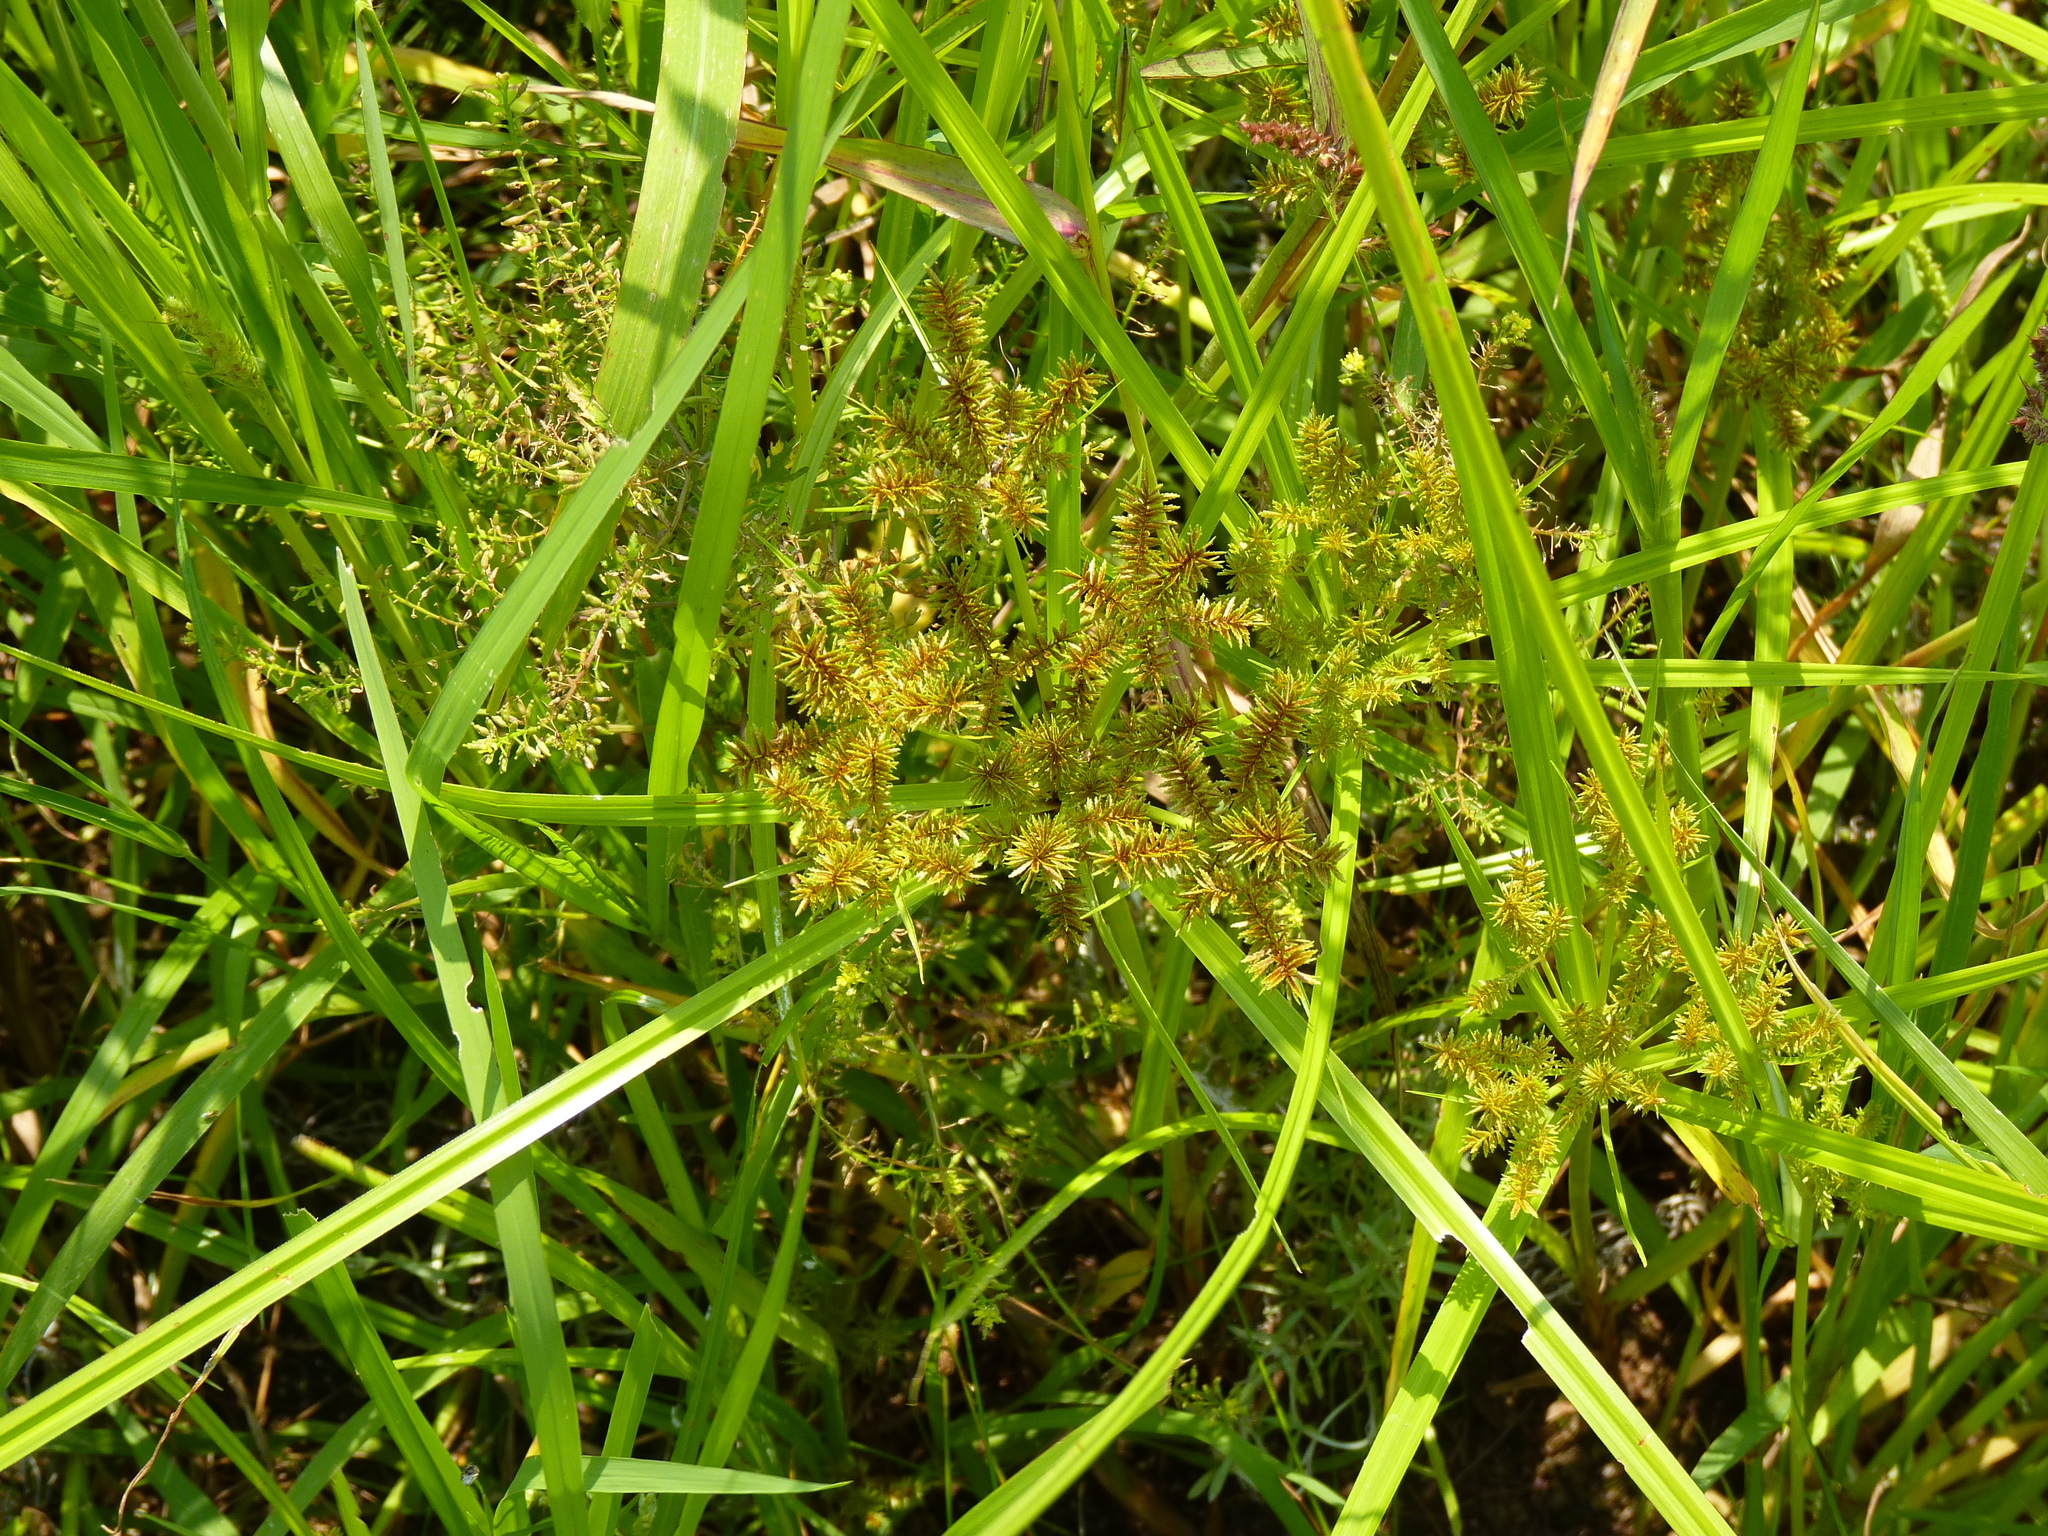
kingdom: Plantae
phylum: Tracheophyta
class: Liliopsida
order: Poales
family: Cyperaceae
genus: Cyperus
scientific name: Cyperus erythrorhizos
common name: Red-root flat sedge
